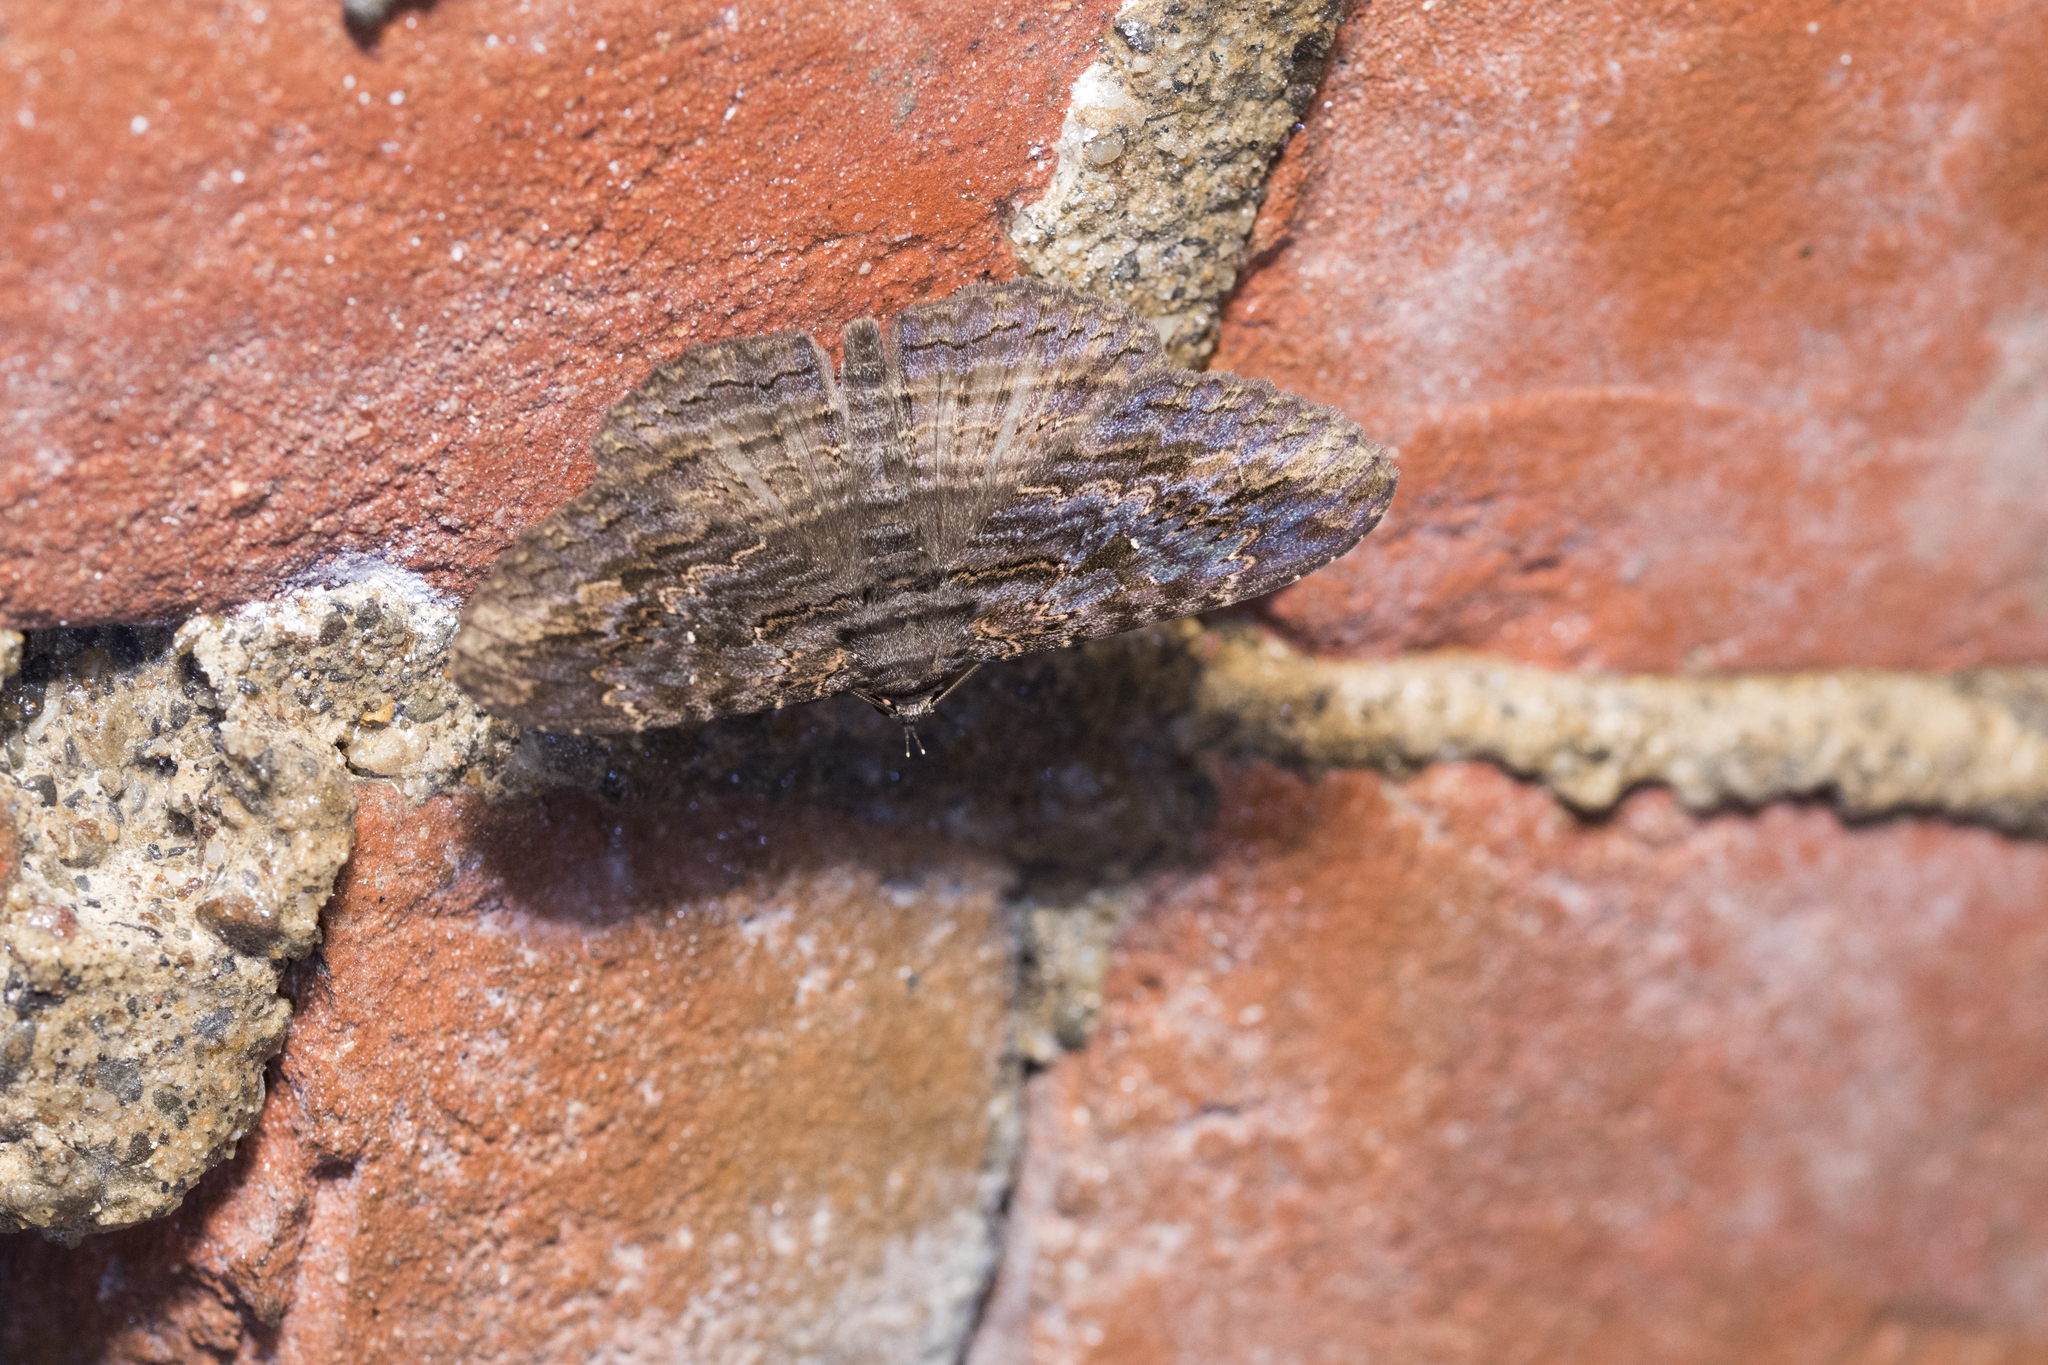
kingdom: Animalia
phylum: Arthropoda
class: Insecta
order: Lepidoptera
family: Erebidae
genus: Anisoneura
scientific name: Anisoneura salebrosa
